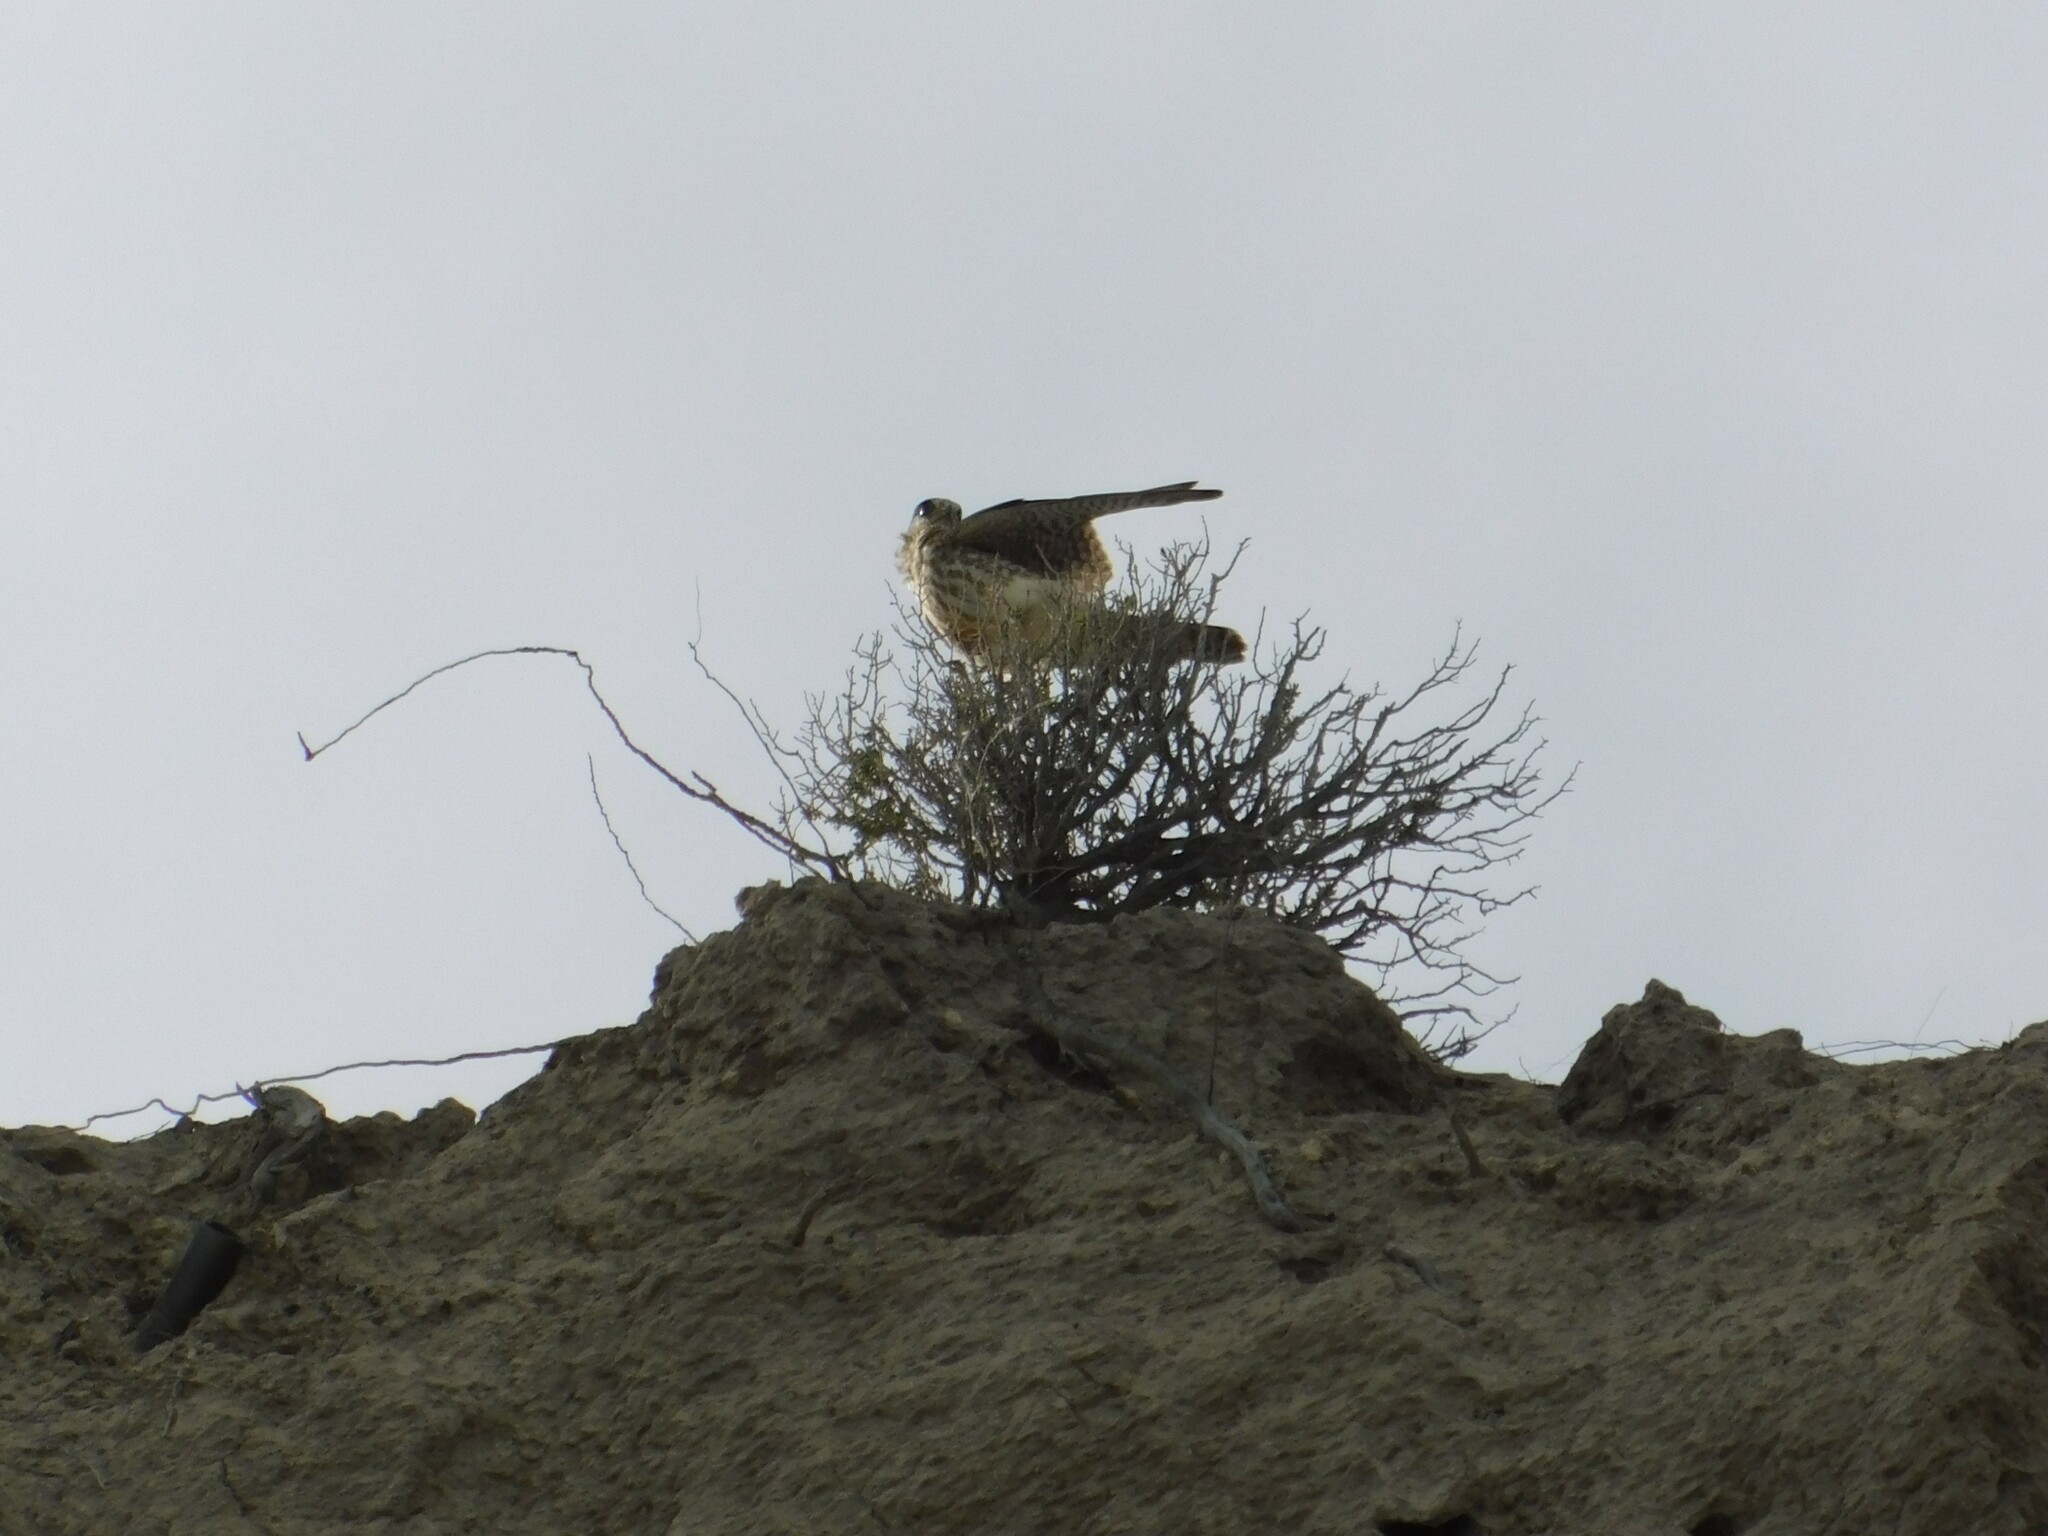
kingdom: Animalia
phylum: Chordata
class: Aves
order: Falconiformes
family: Falconidae
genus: Falco
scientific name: Falco sparverius
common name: American kestrel
